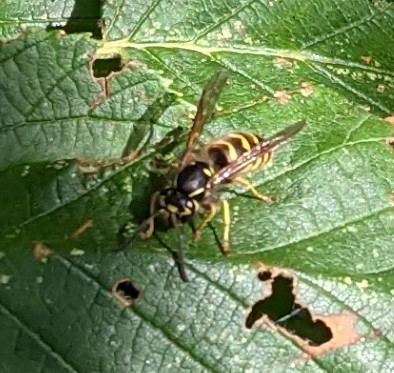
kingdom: Animalia
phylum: Arthropoda
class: Insecta
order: Hymenoptera
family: Vespidae
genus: Vespula
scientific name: Vespula alascensis
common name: Alaska yellowjacket
